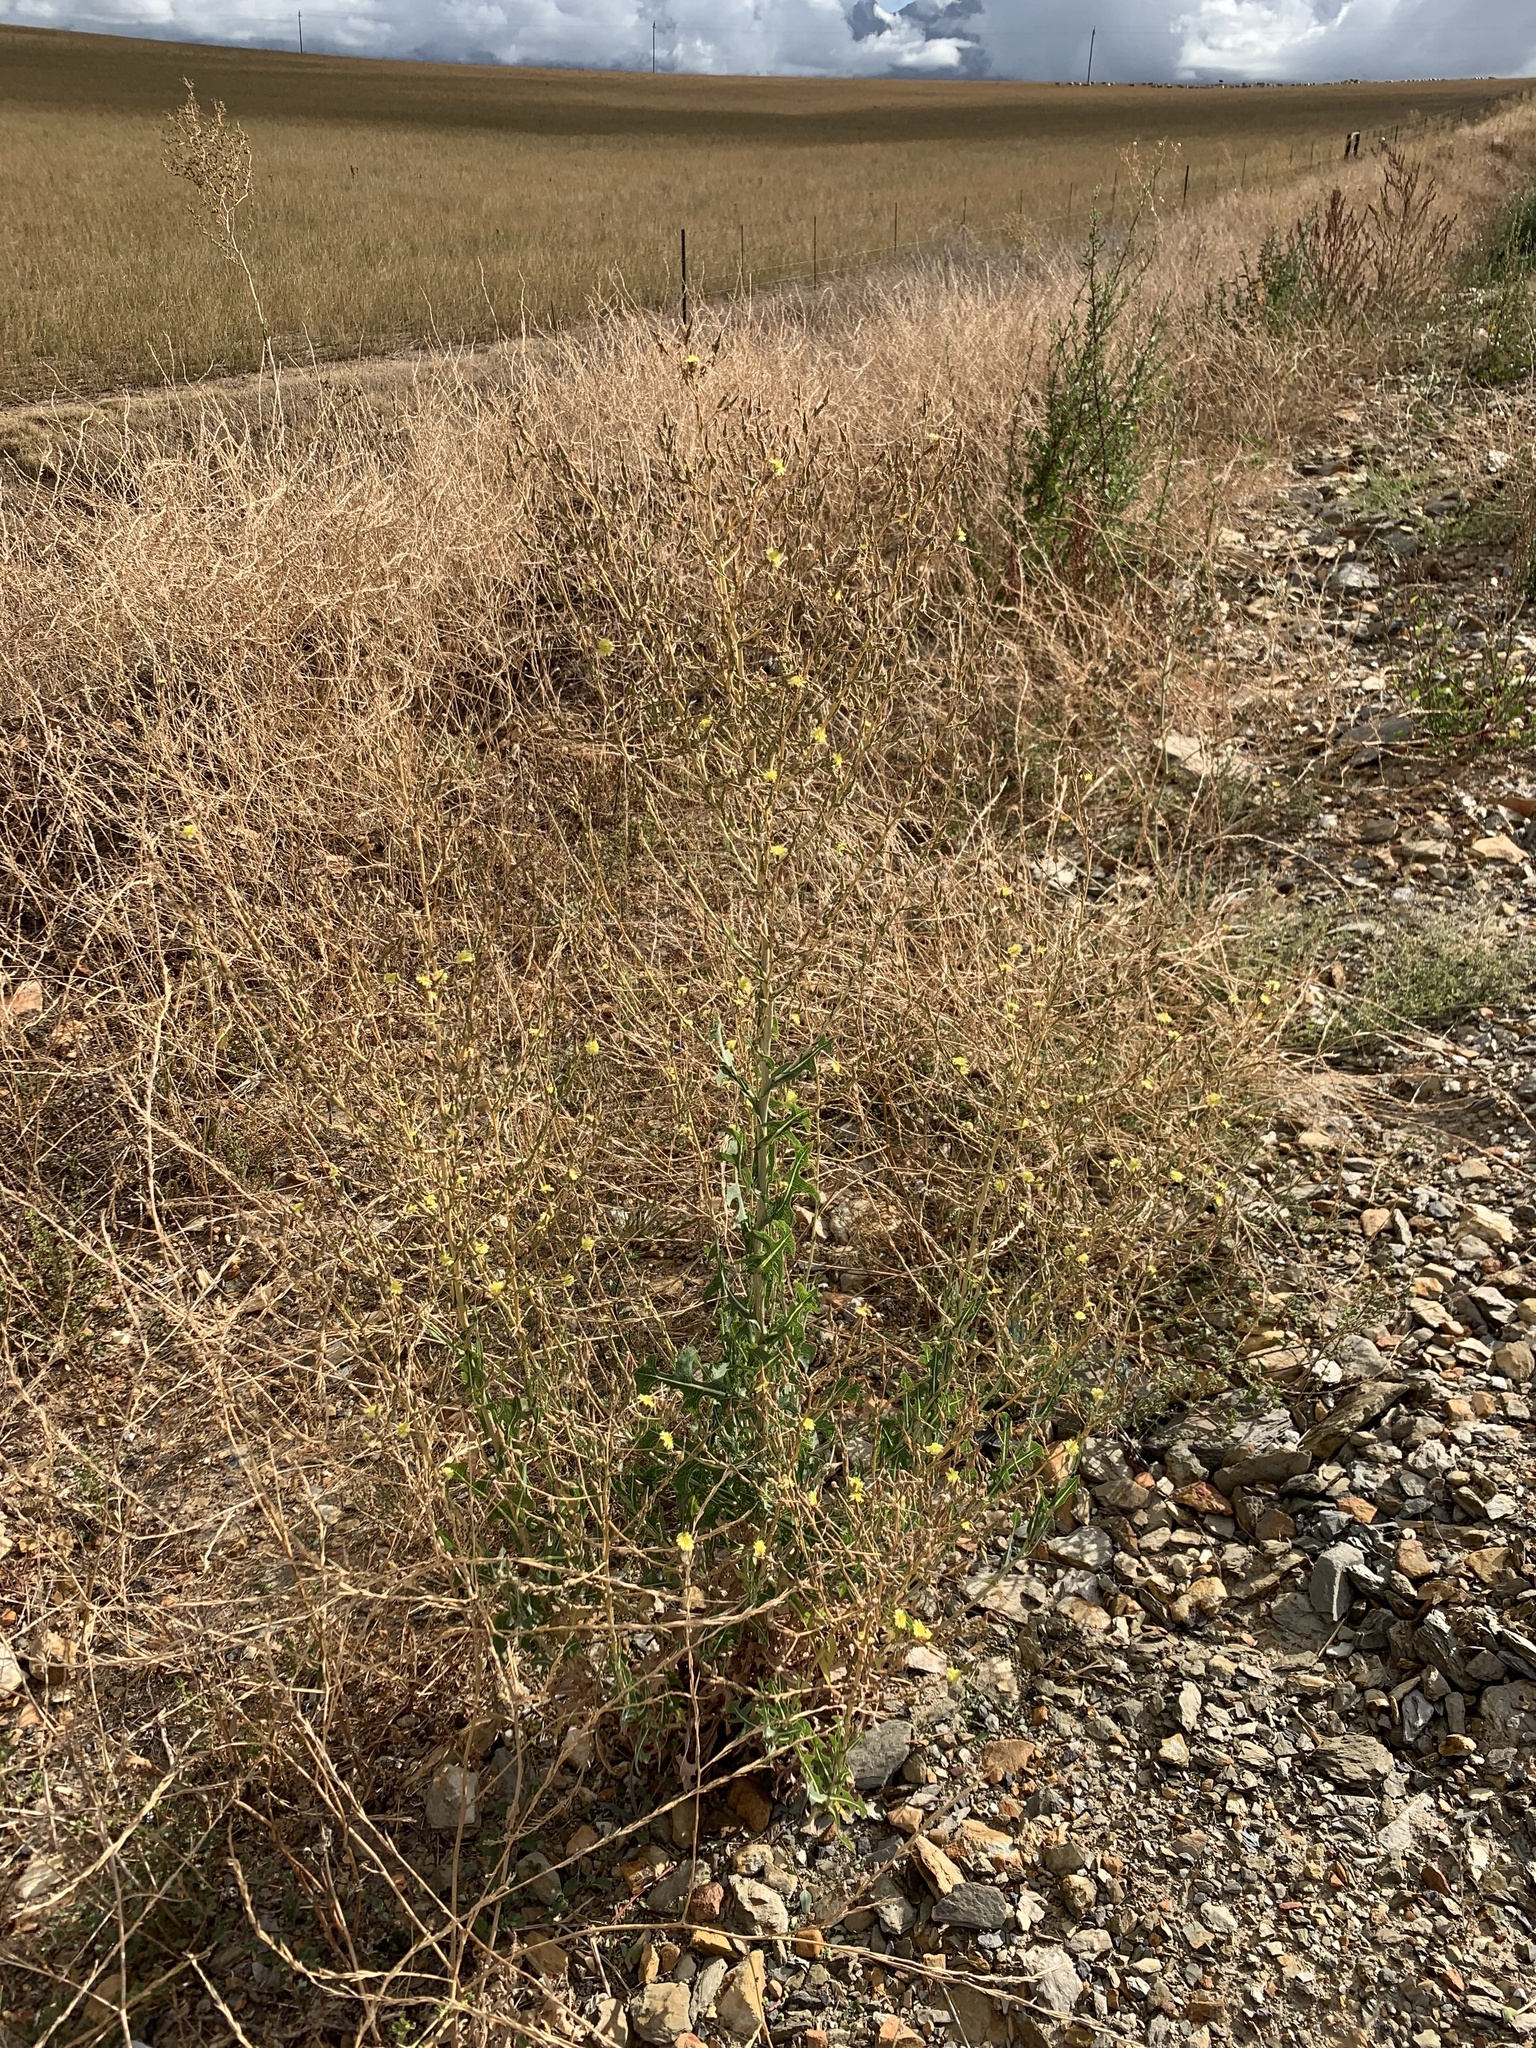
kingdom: Plantae
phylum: Tracheophyta
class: Magnoliopsida
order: Asterales
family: Asteraceae
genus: Lactuca
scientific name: Lactuca serriola
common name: Prickly lettuce
